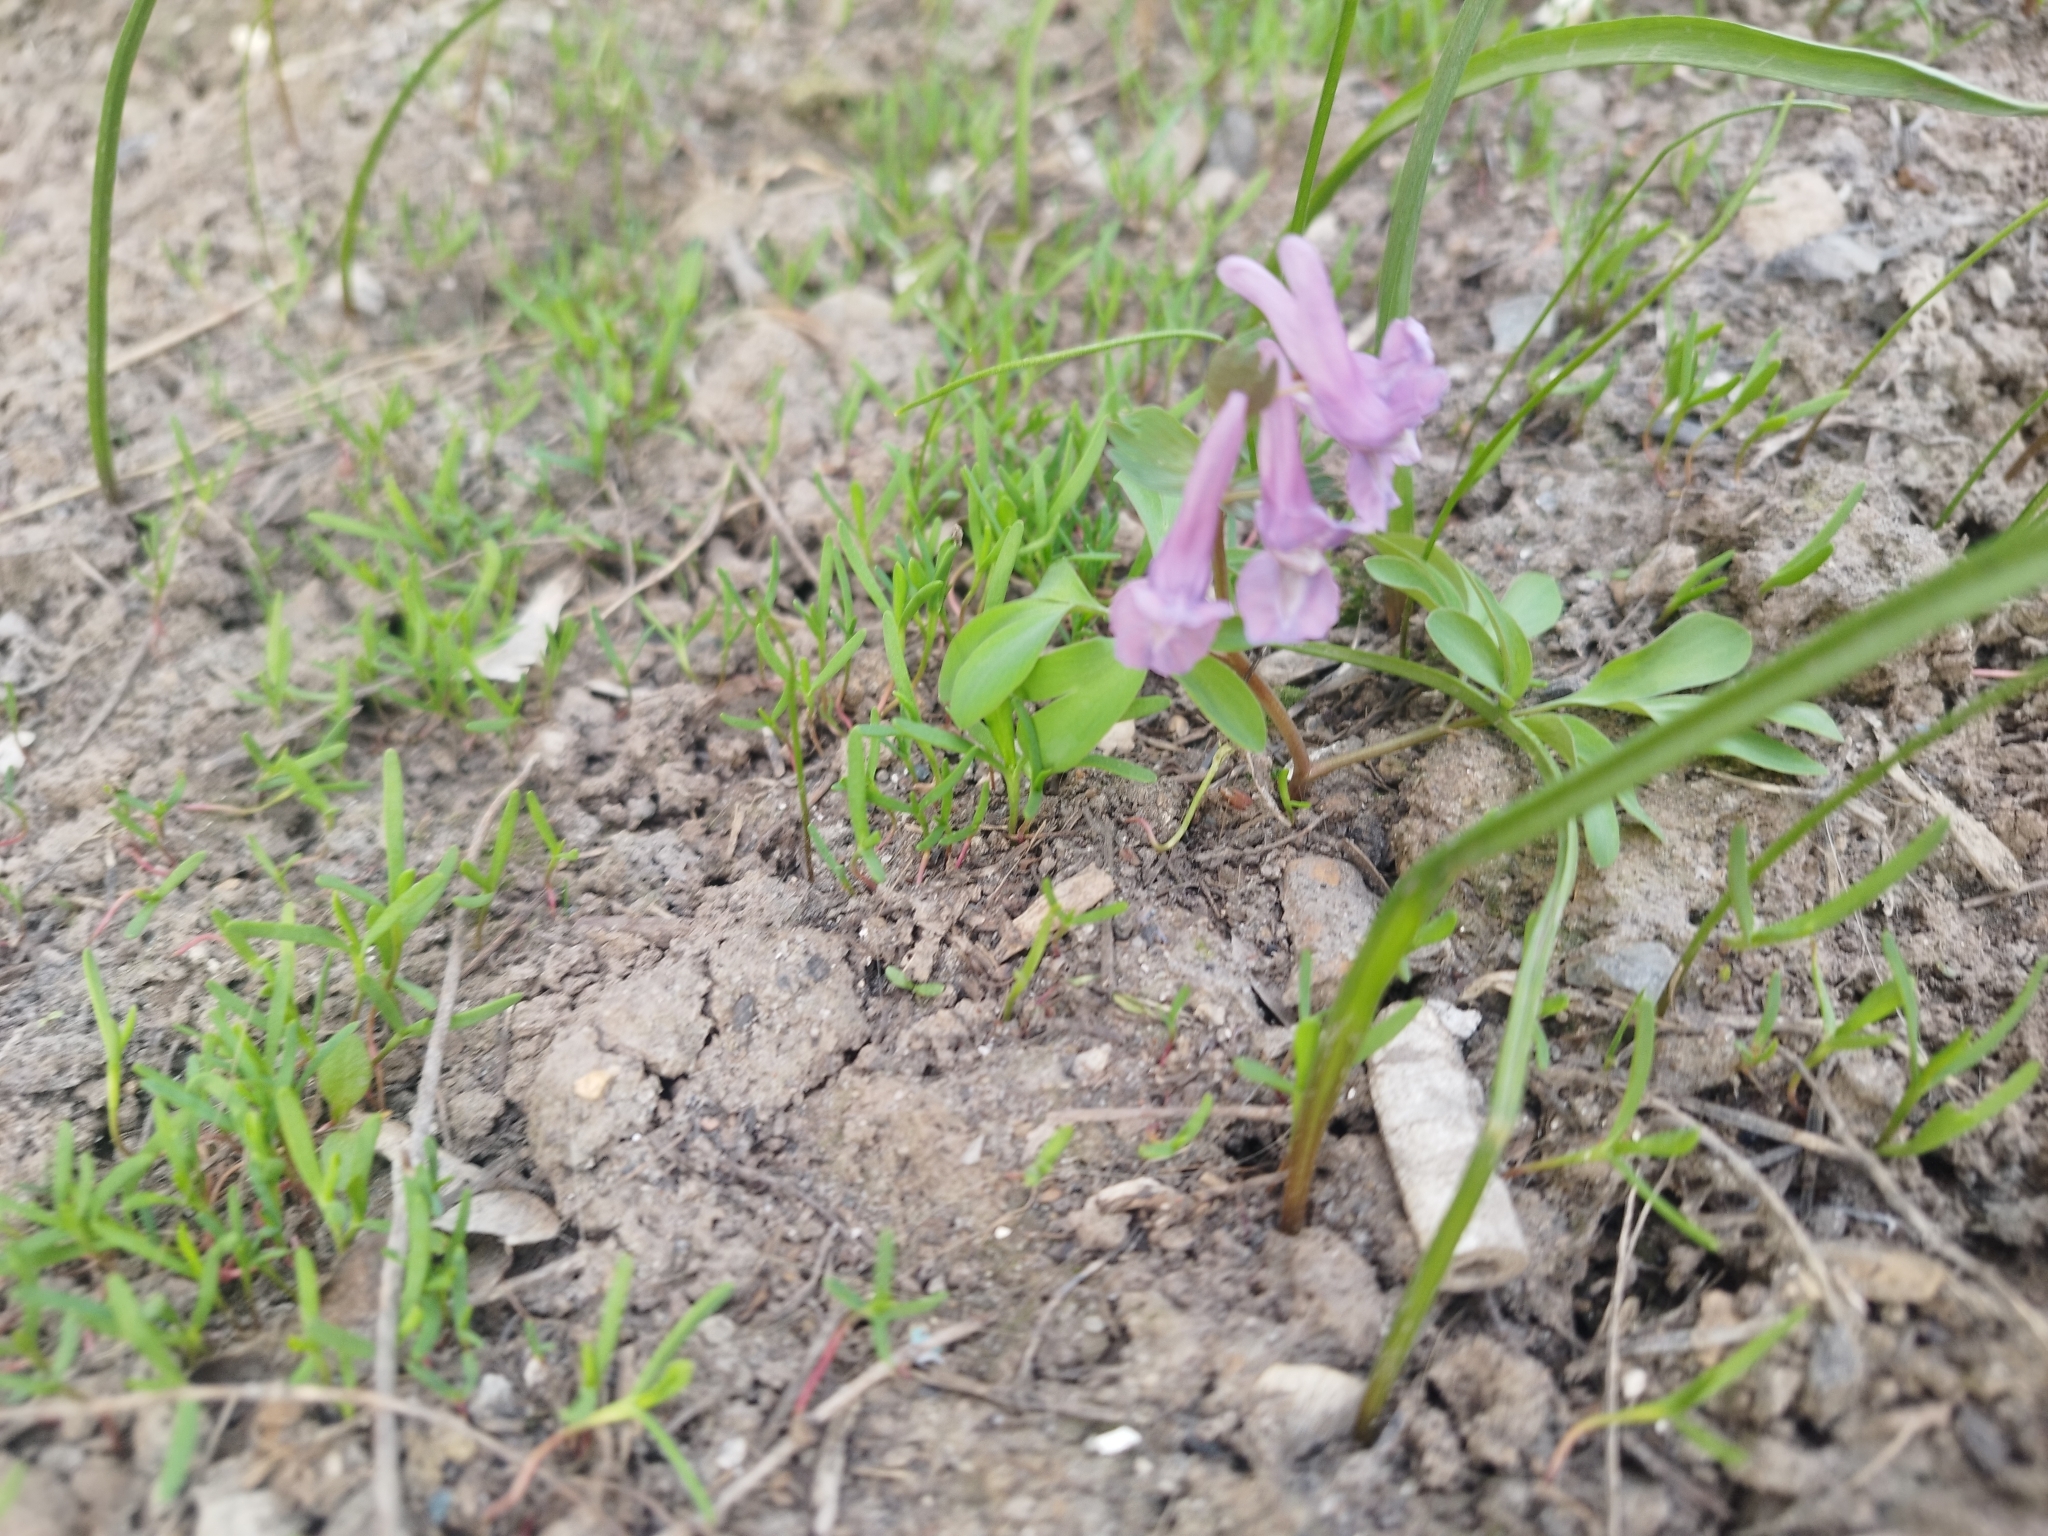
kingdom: Plantae
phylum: Tracheophyta
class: Magnoliopsida
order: Ranunculales
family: Papaveraceae
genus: Corydalis
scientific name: Corydalis solida
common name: Bird-in-a-bush
